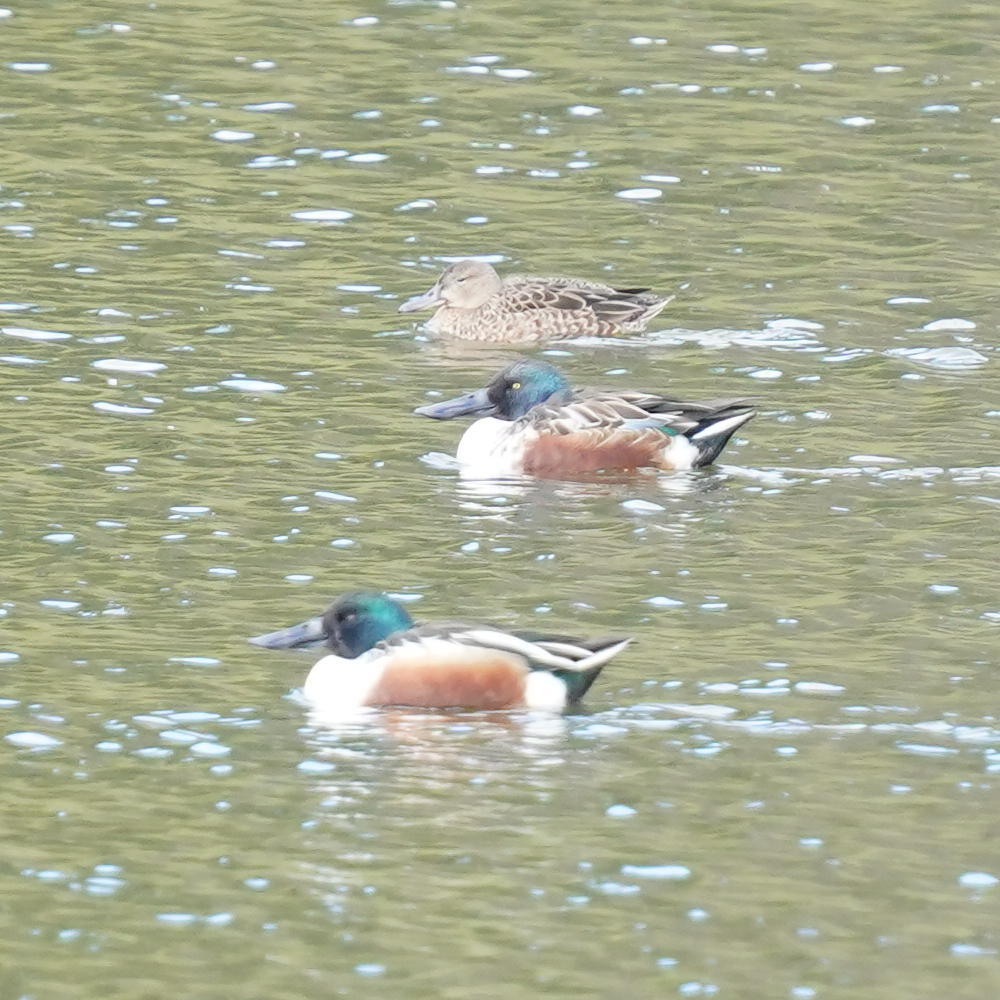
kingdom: Animalia
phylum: Chordata
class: Aves
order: Anseriformes
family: Anatidae
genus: Spatula
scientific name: Spatula clypeata
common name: Northern shoveler
